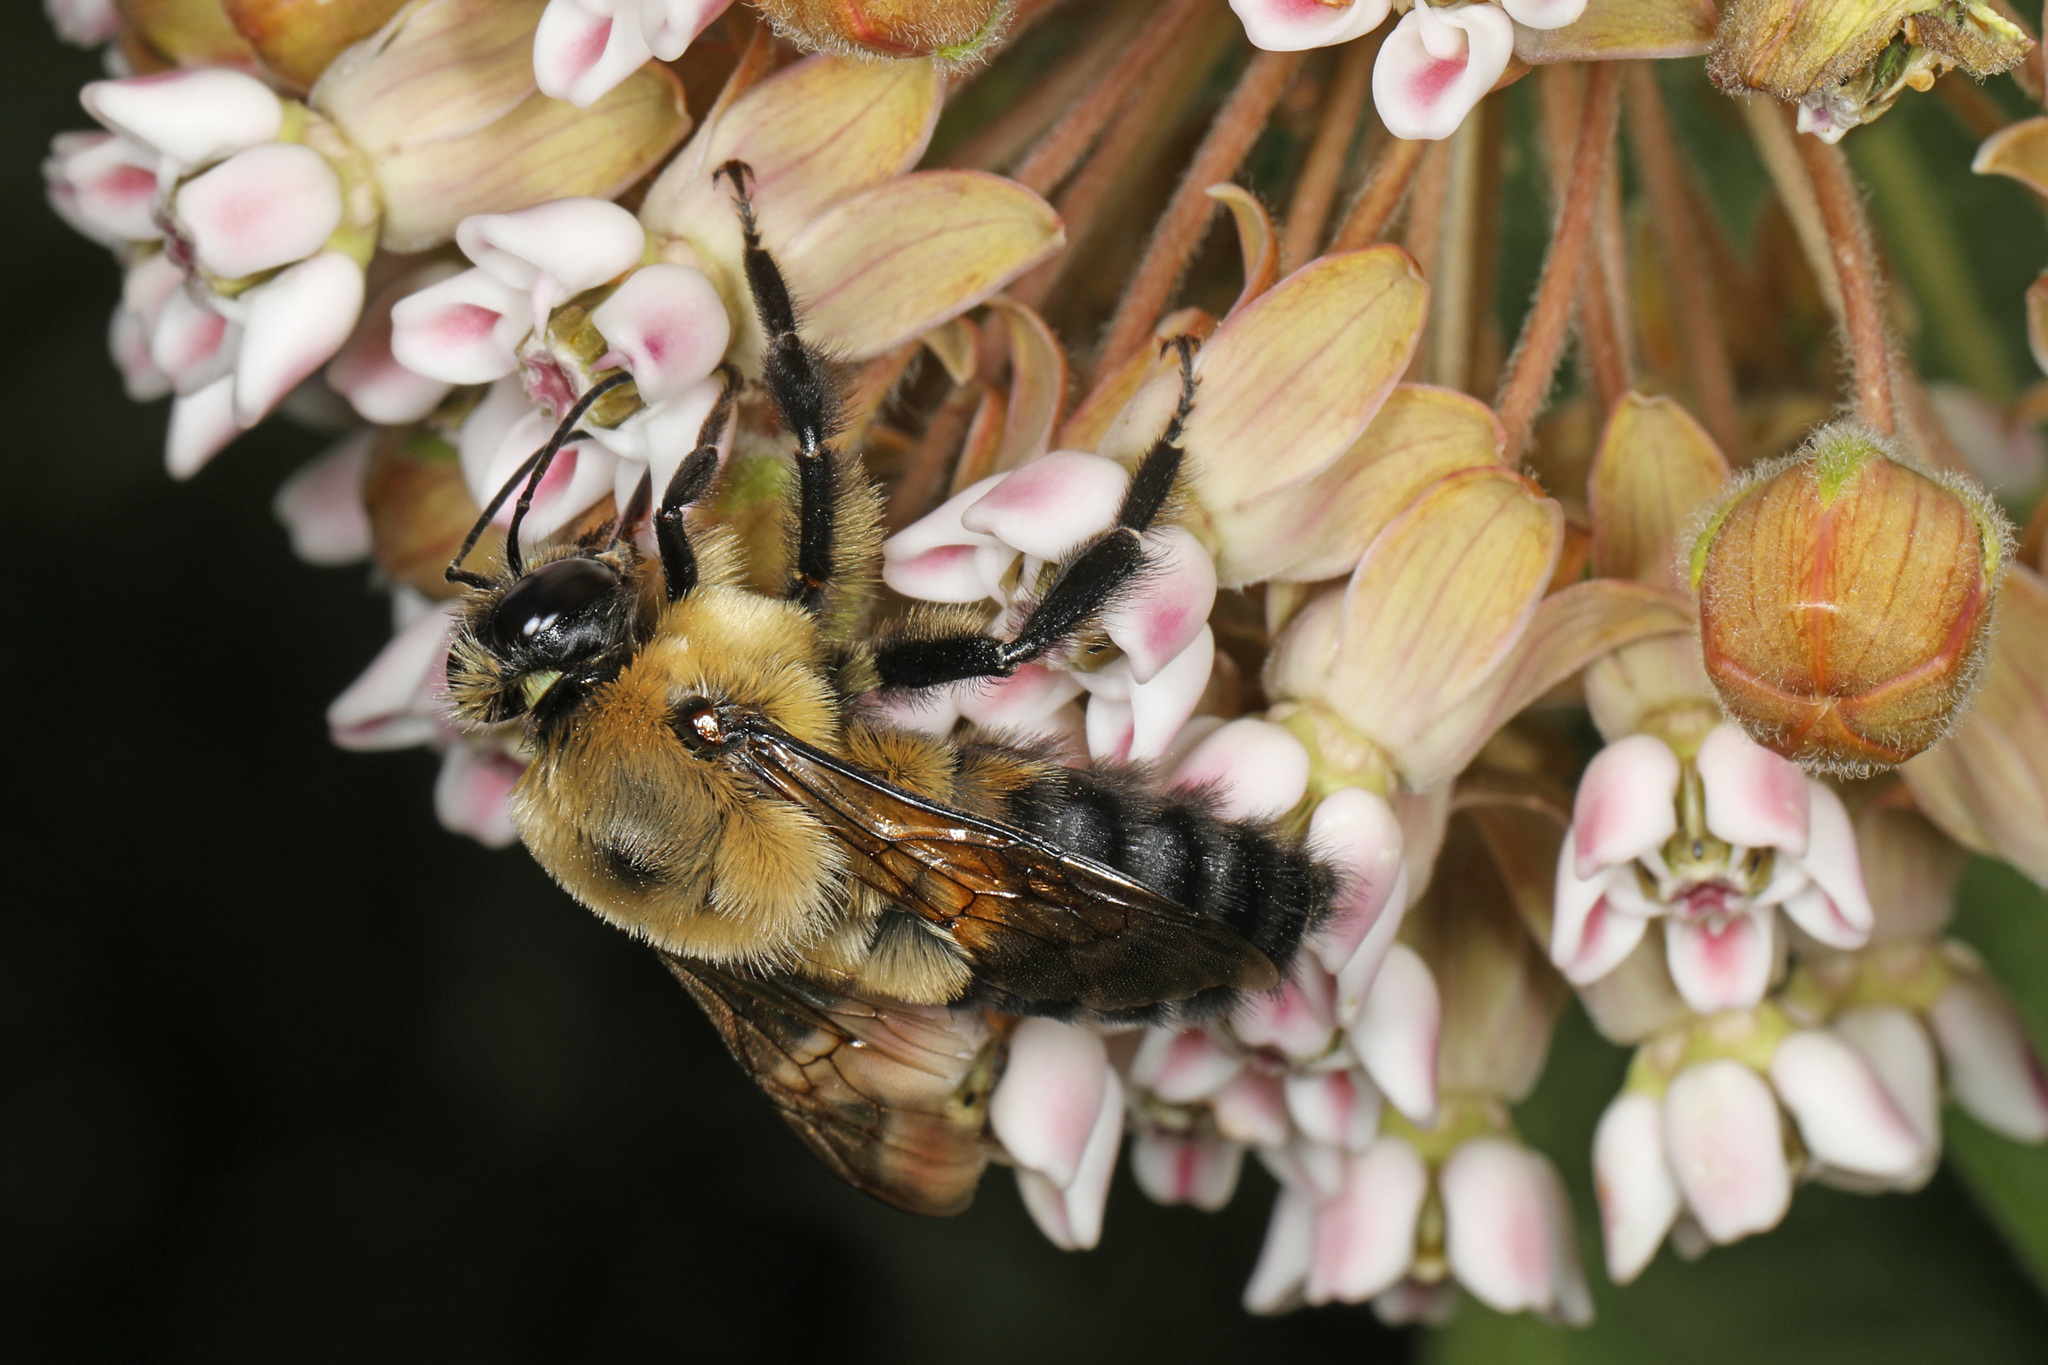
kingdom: Animalia
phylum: Arthropoda
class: Insecta
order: Hymenoptera
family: Apidae
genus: Bombus
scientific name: Bombus griseocollis
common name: Brown-belted bumble bee
